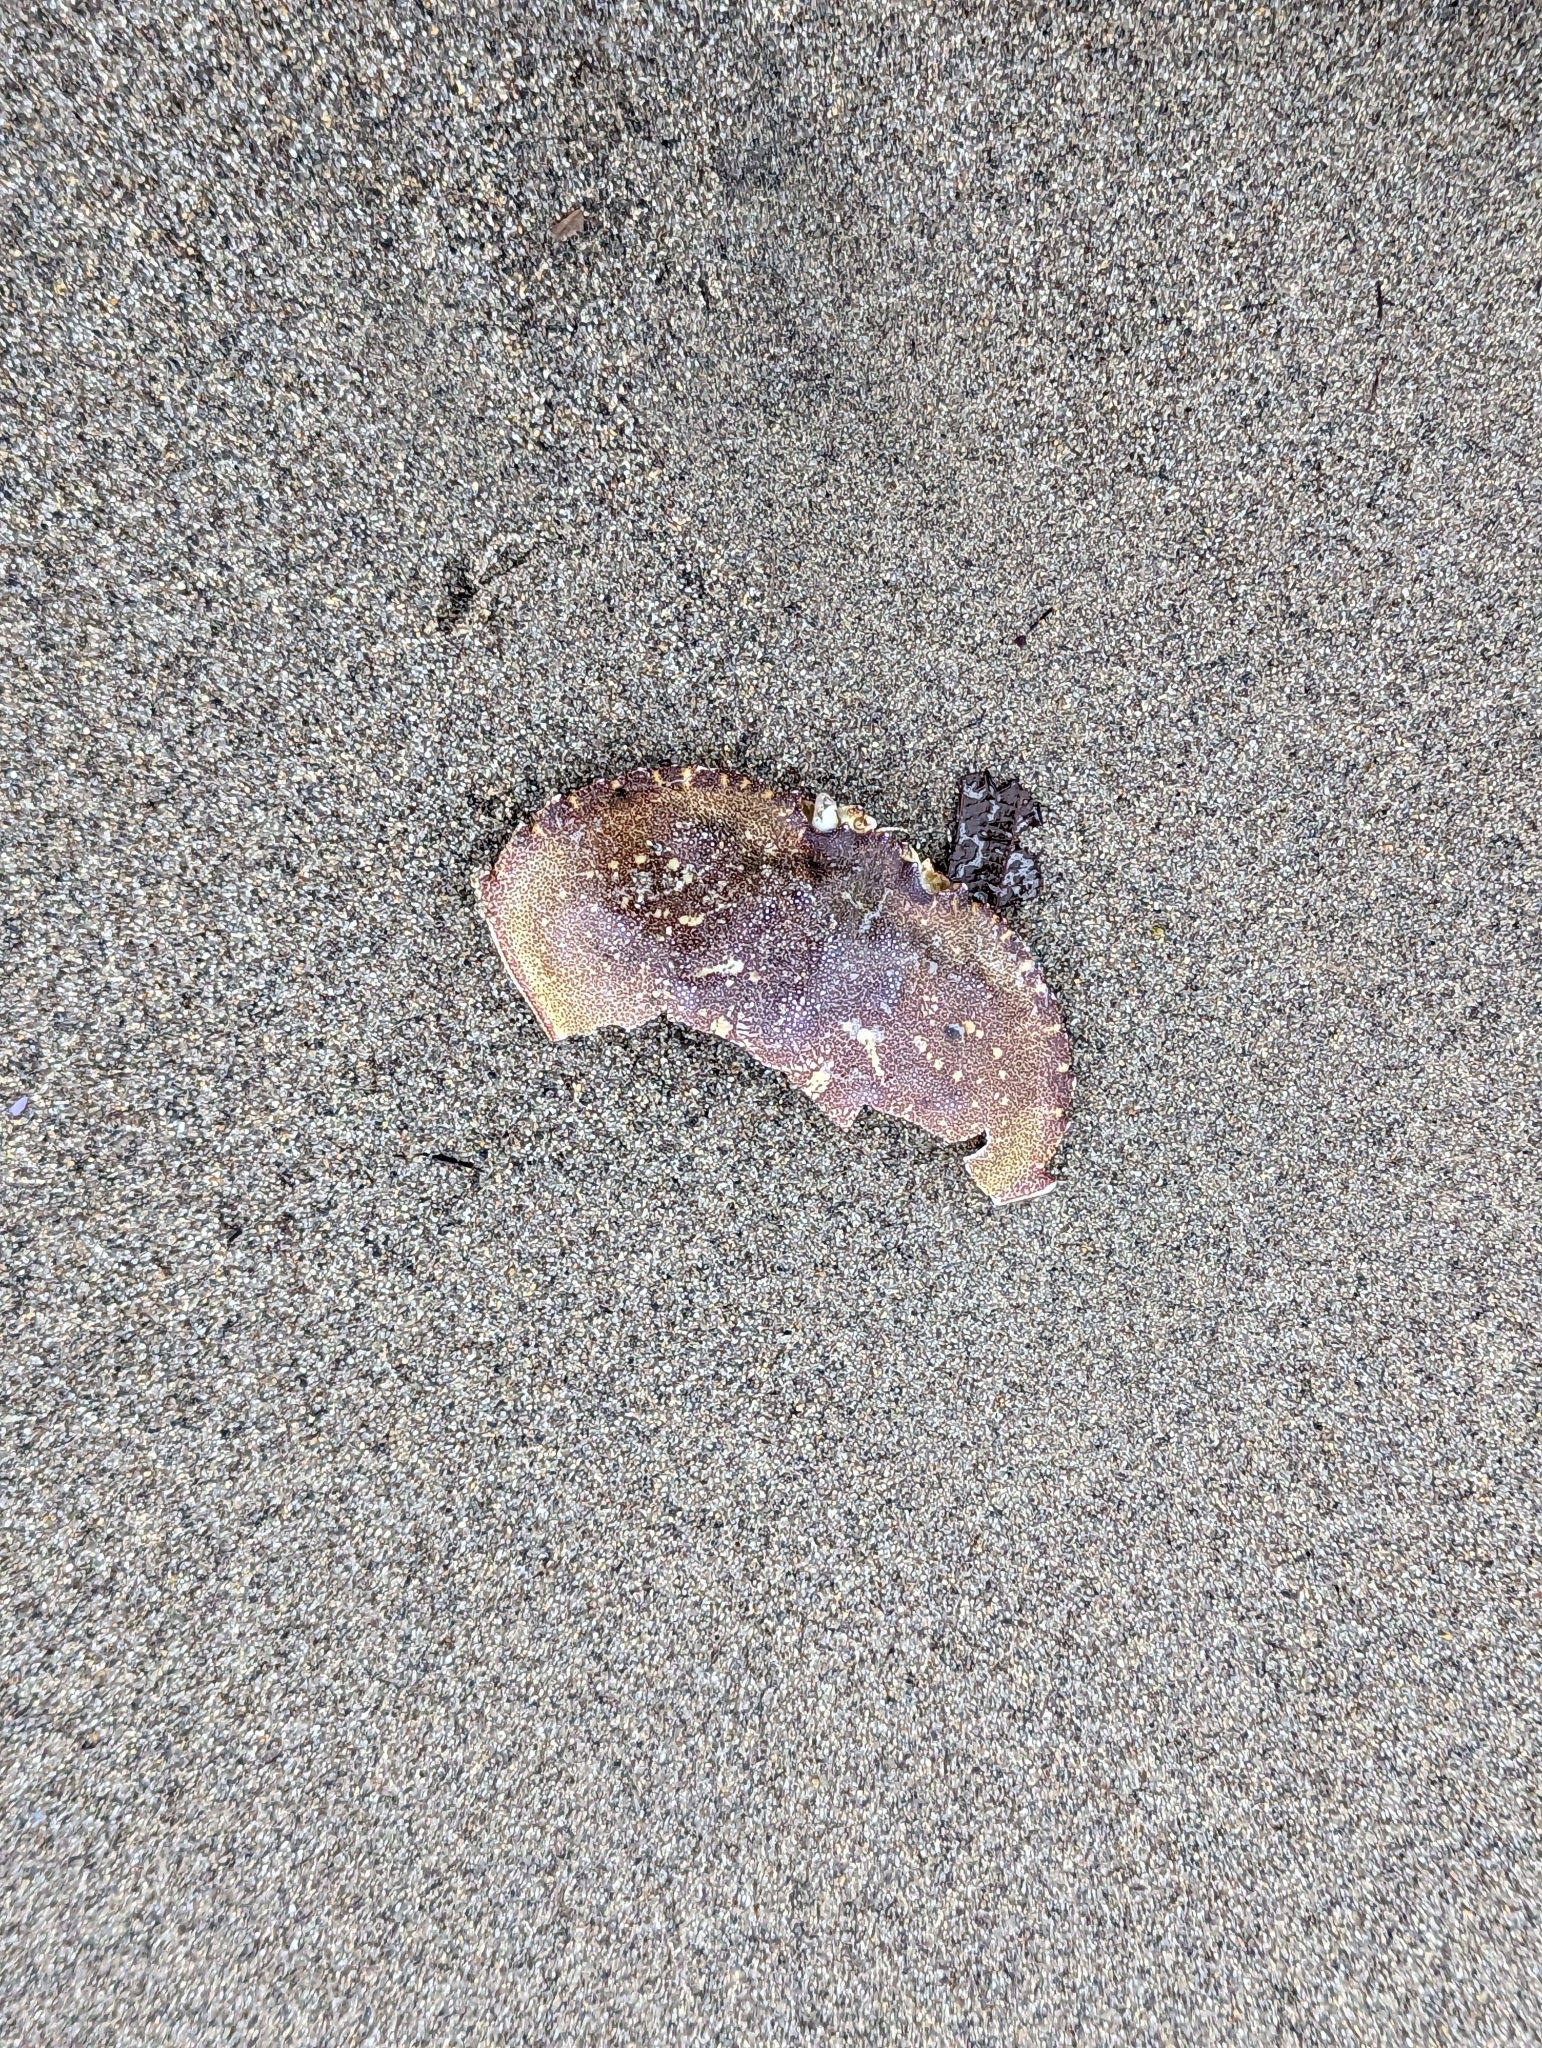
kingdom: Animalia
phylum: Arthropoda
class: Malacostraca
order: Decapoda
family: Cancridae
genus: Metacarcinus
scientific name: Metacarcinus magister
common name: Californian crab
